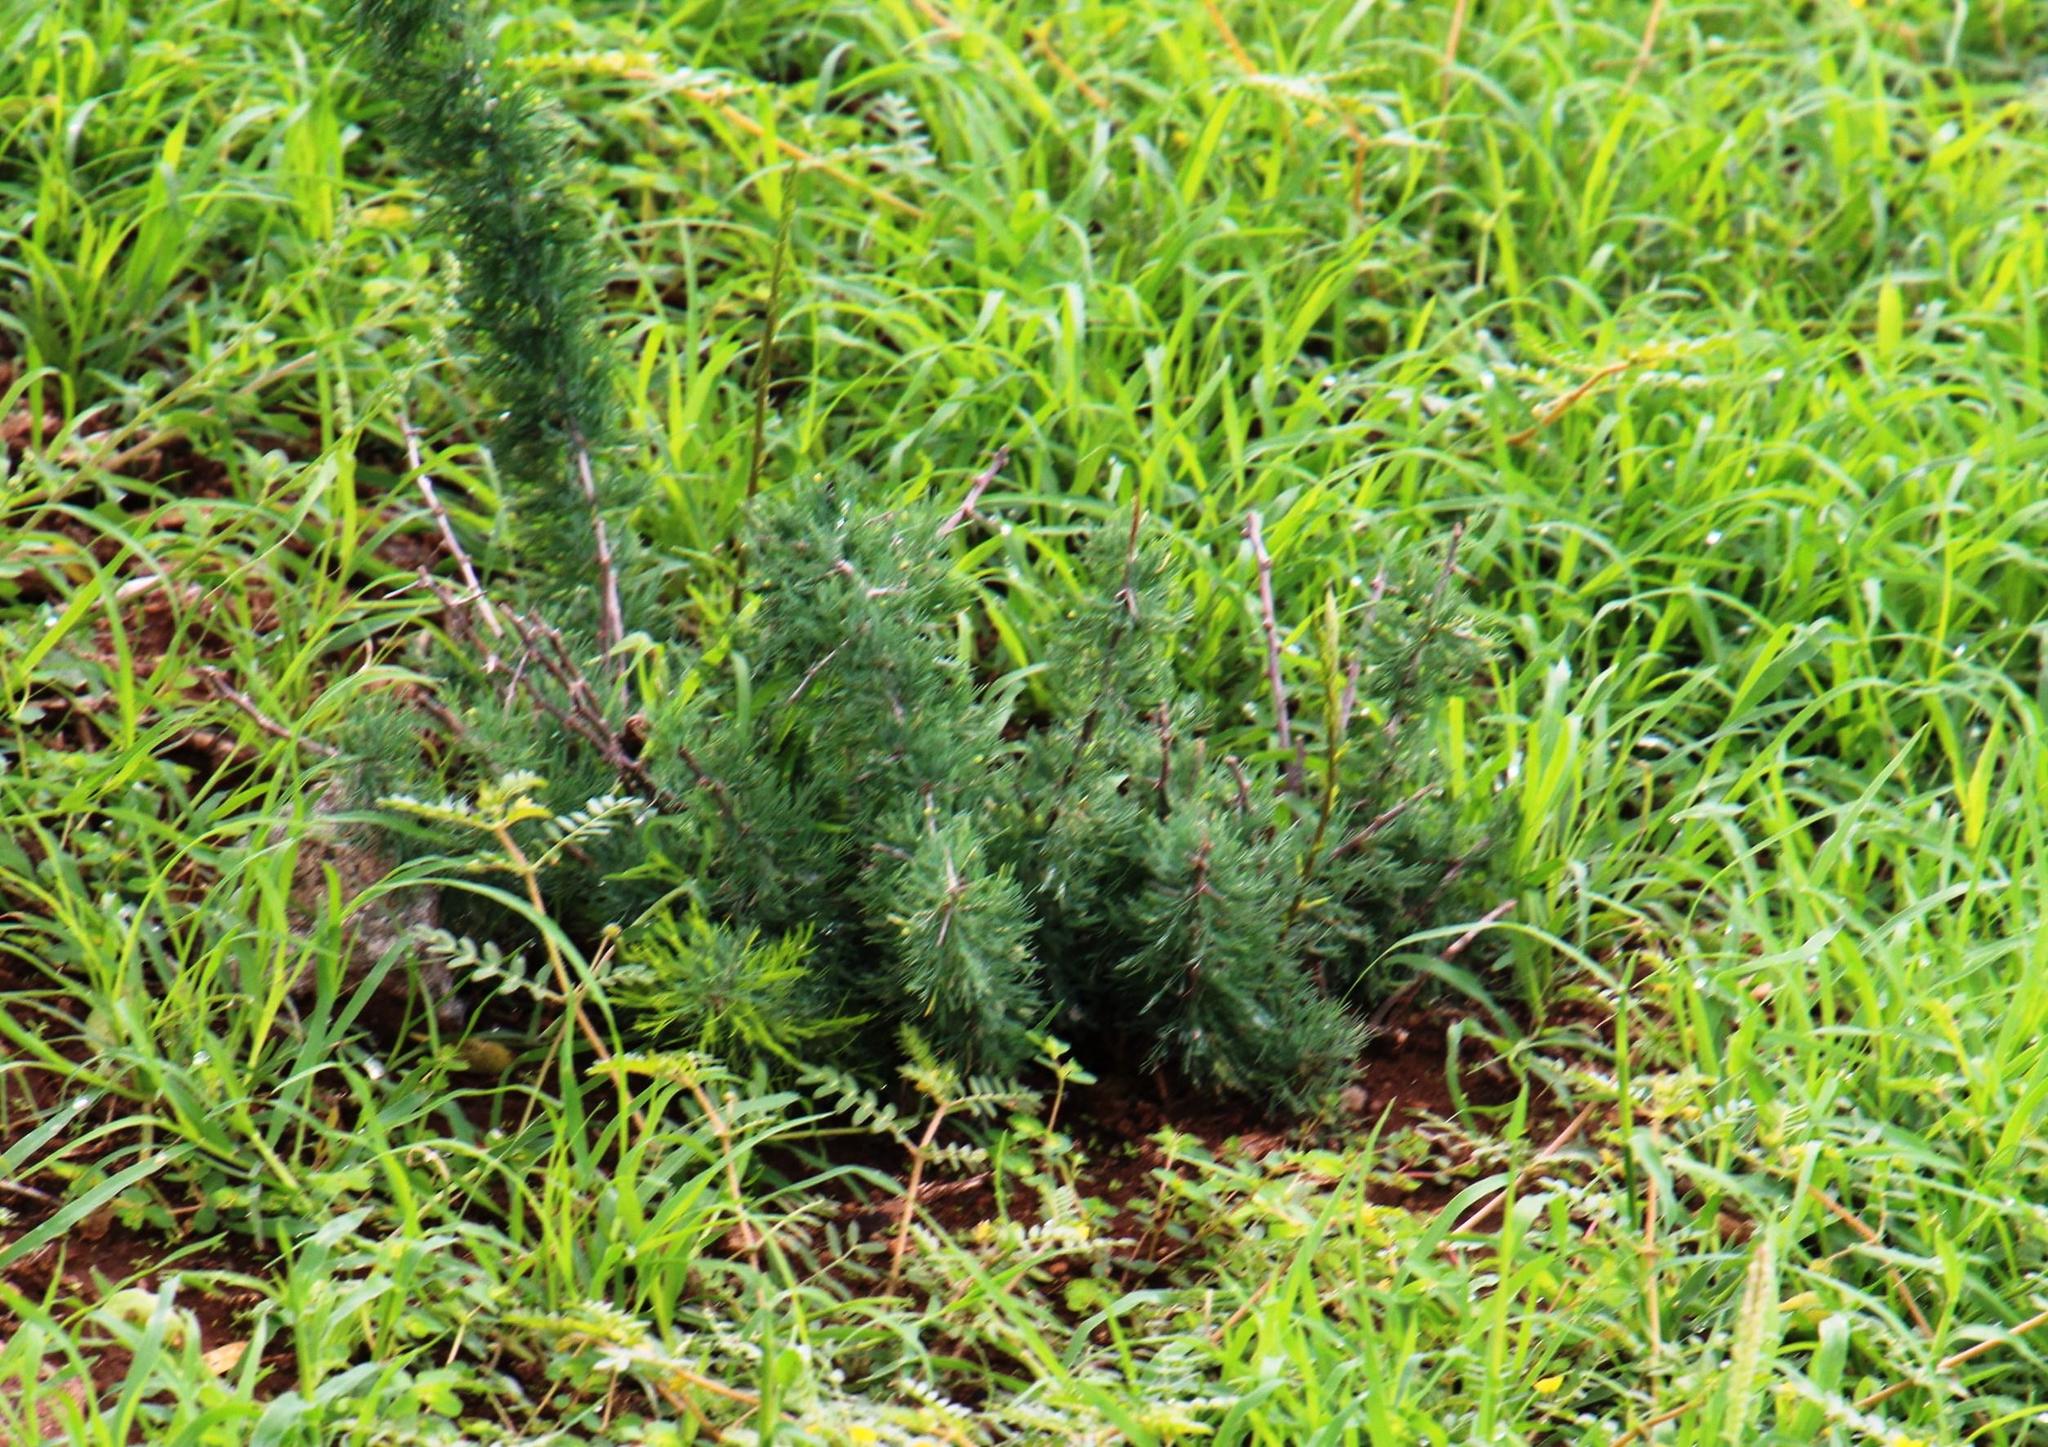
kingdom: Plantae
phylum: Tracheophyta
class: Liliopsida
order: Asparagales
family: Asparagaceae
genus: Asparagus
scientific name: Asparagus suaveolens
